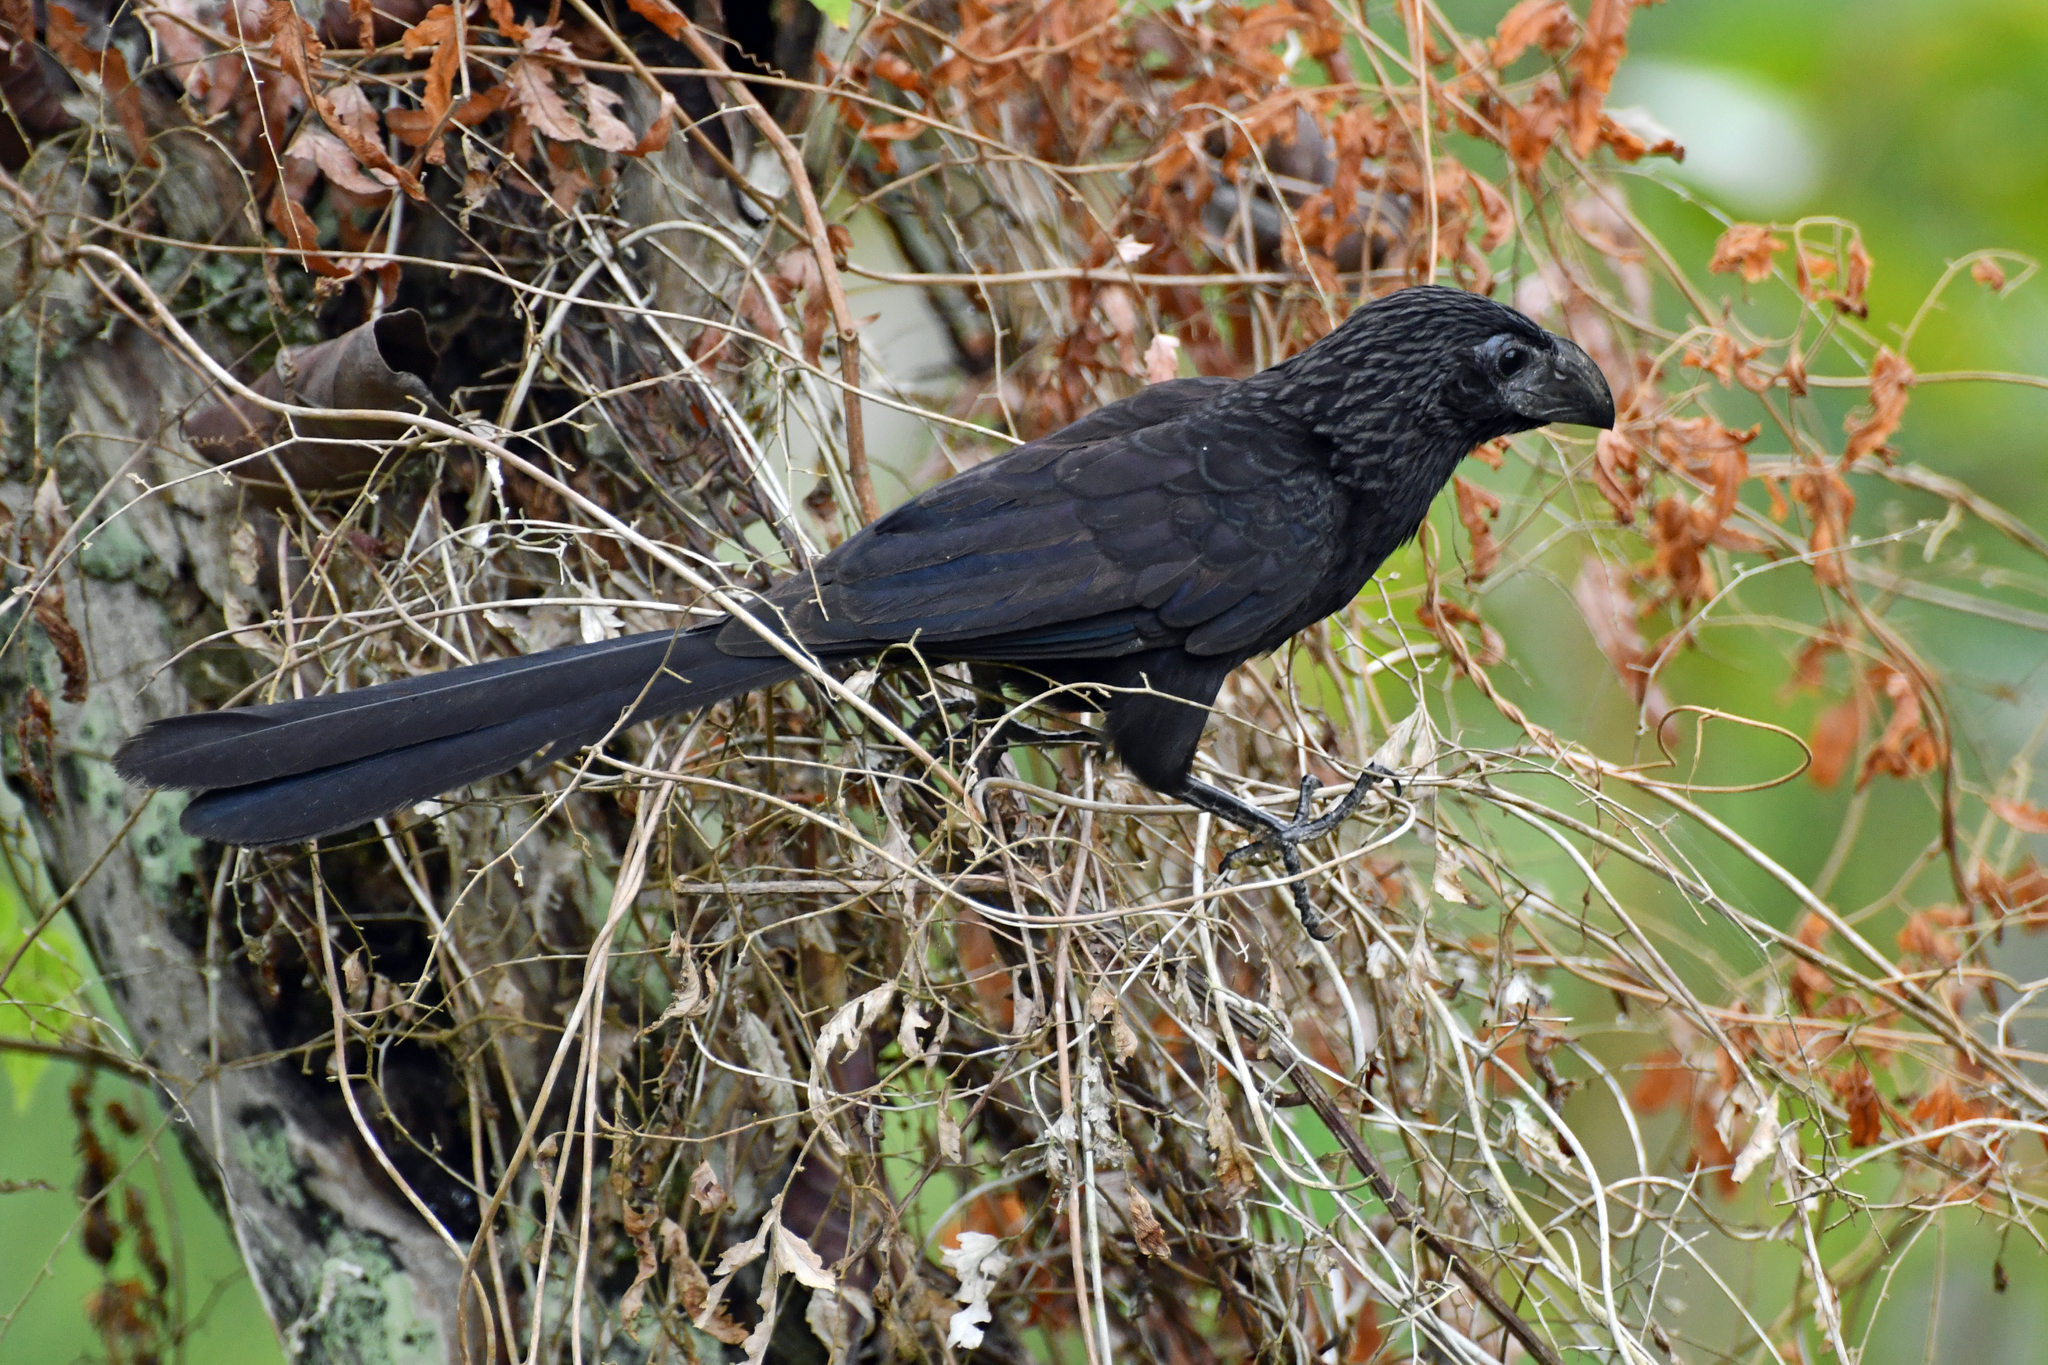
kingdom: Animalia
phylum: Chordata
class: Aves
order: Cuculiformes
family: Cuculidae
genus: Crotophaga
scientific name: Crotophaga sulcirostris
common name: Groove-billed ani
